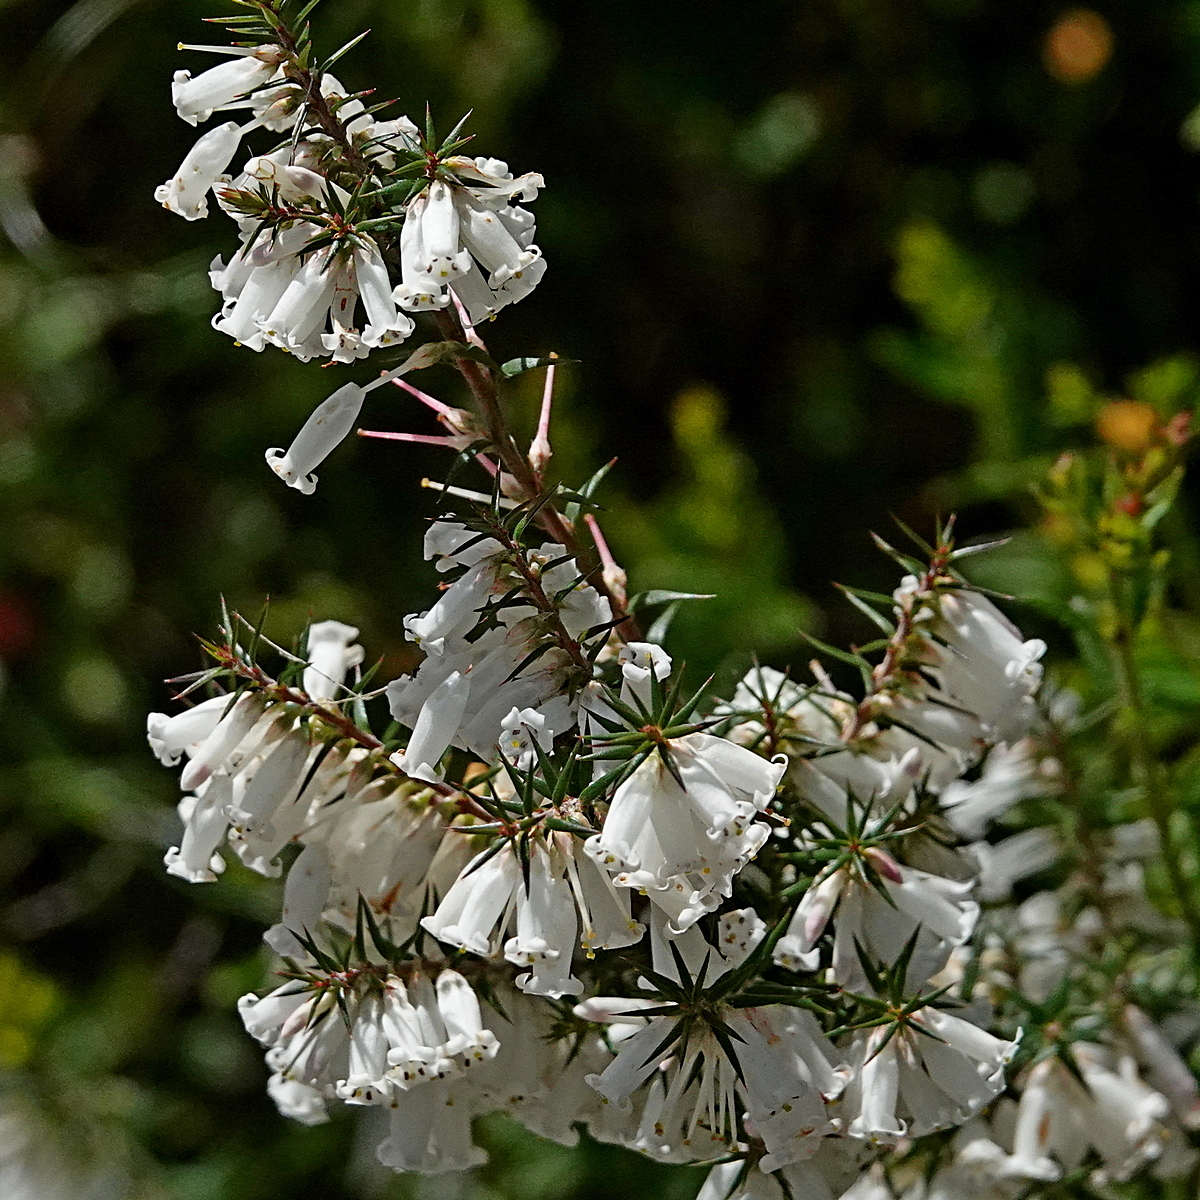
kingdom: Plantae
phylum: Tracheophyta
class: Magnoliopsida
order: Ericales
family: Ericaceae
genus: Epacris
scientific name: Epacris impressa
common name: Common-heath
